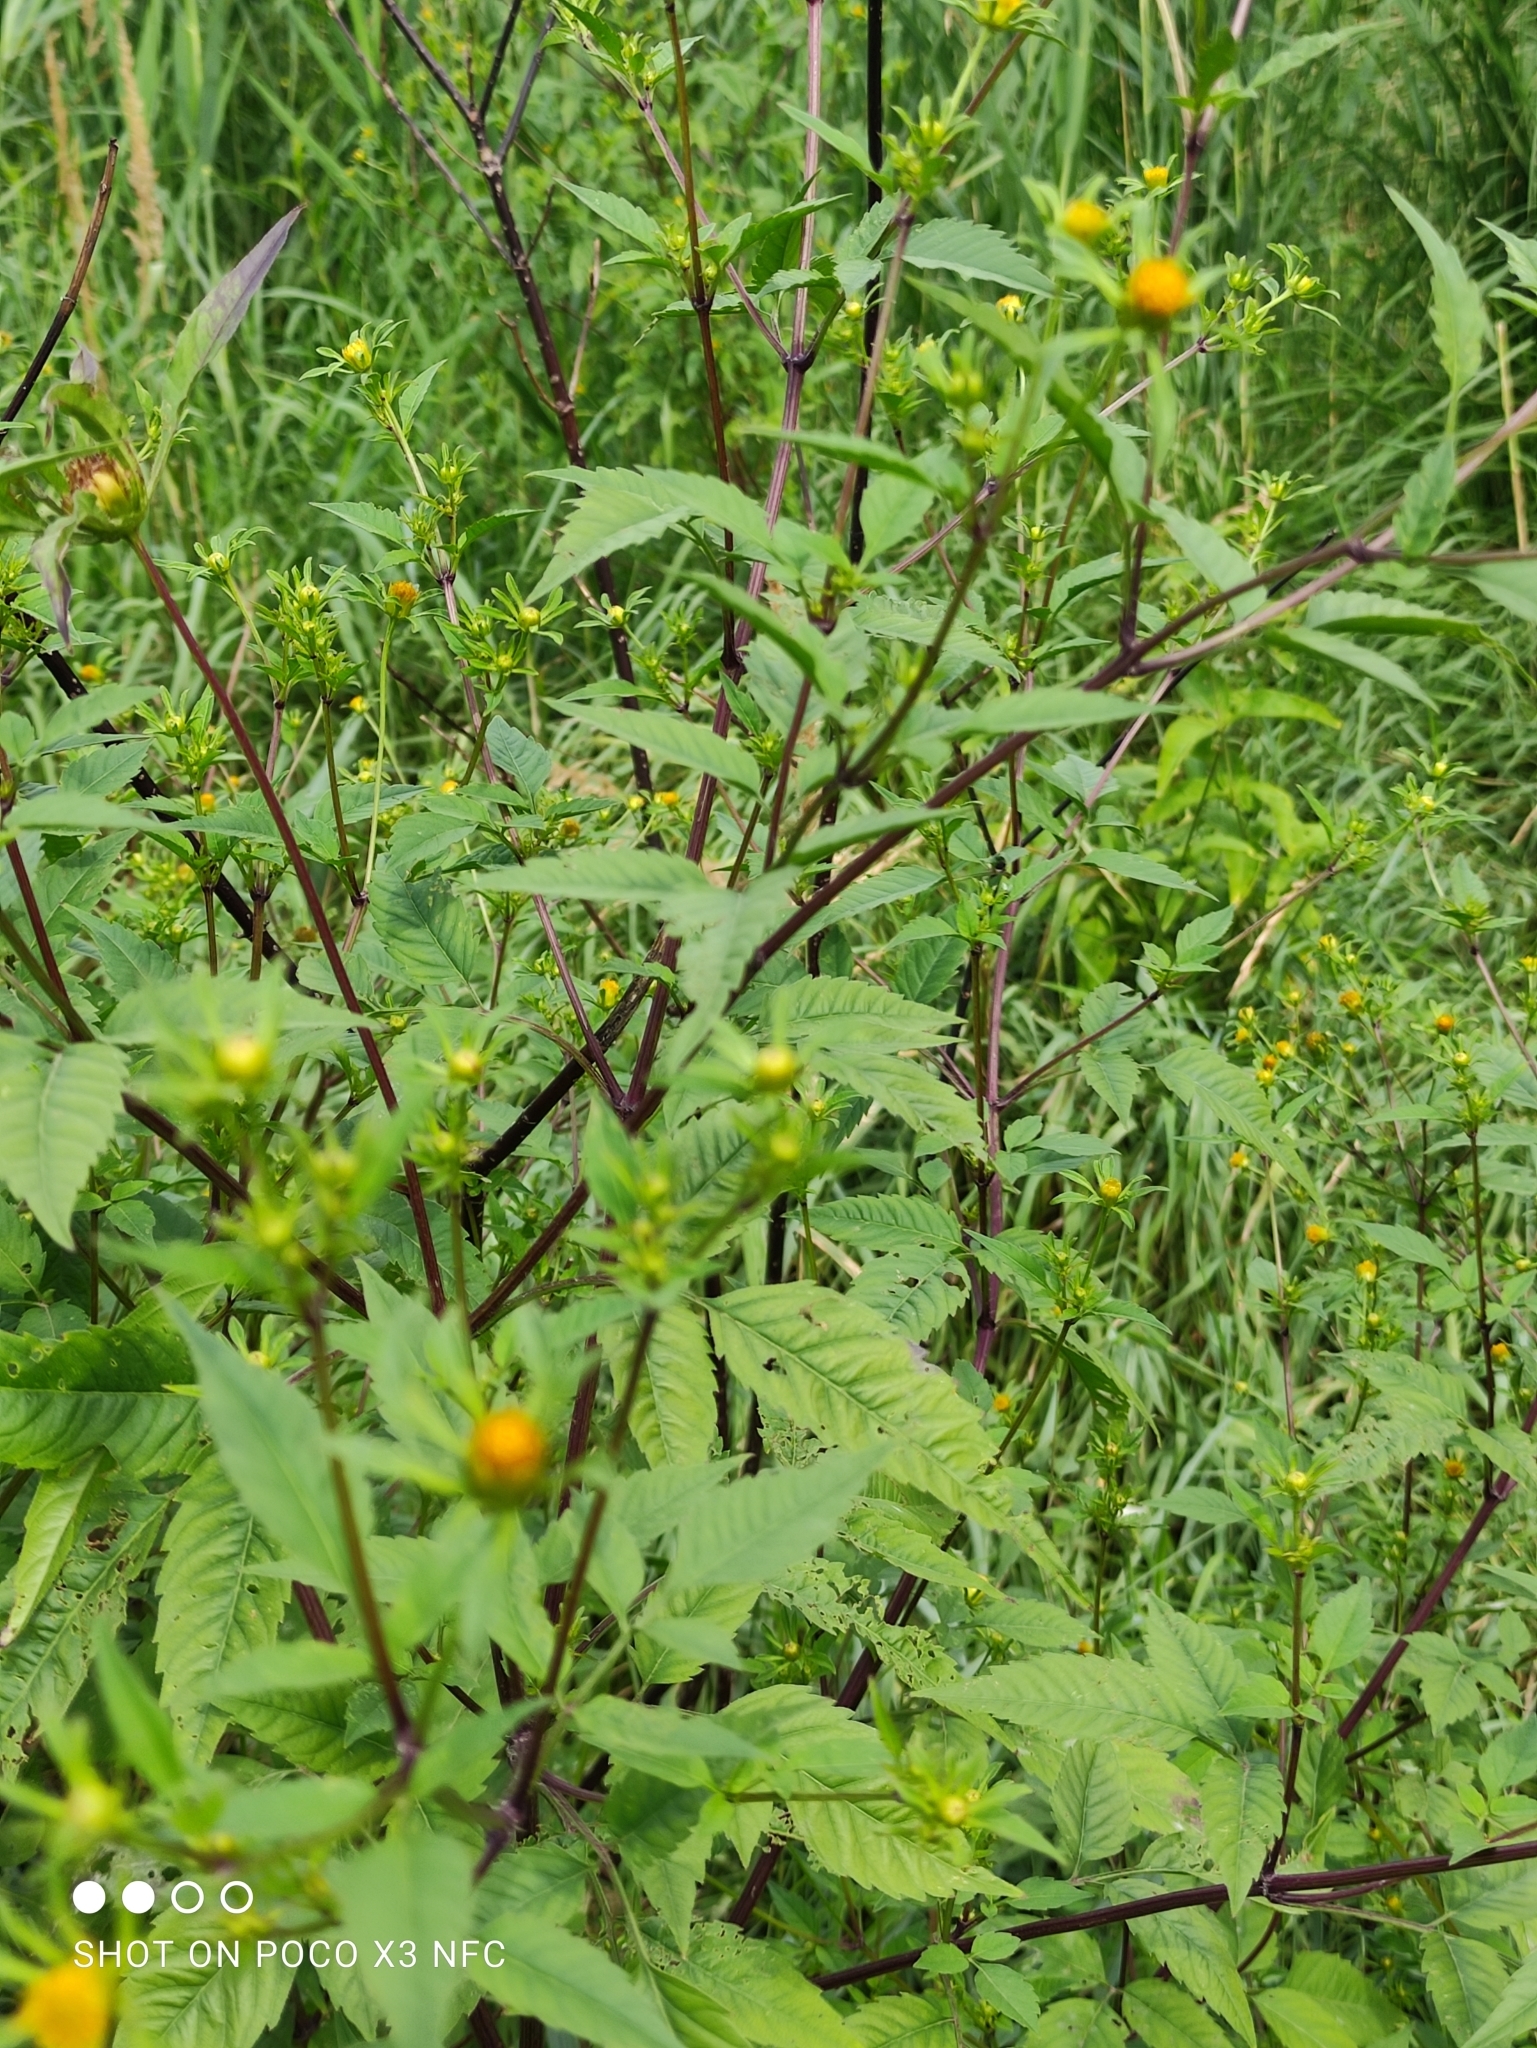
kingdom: Plantae
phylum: Tracheophyta
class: Magnoliopsida
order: Asterales
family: Asteraceae
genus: Bidens
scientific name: Bidens frondosa
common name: Beggarticks
